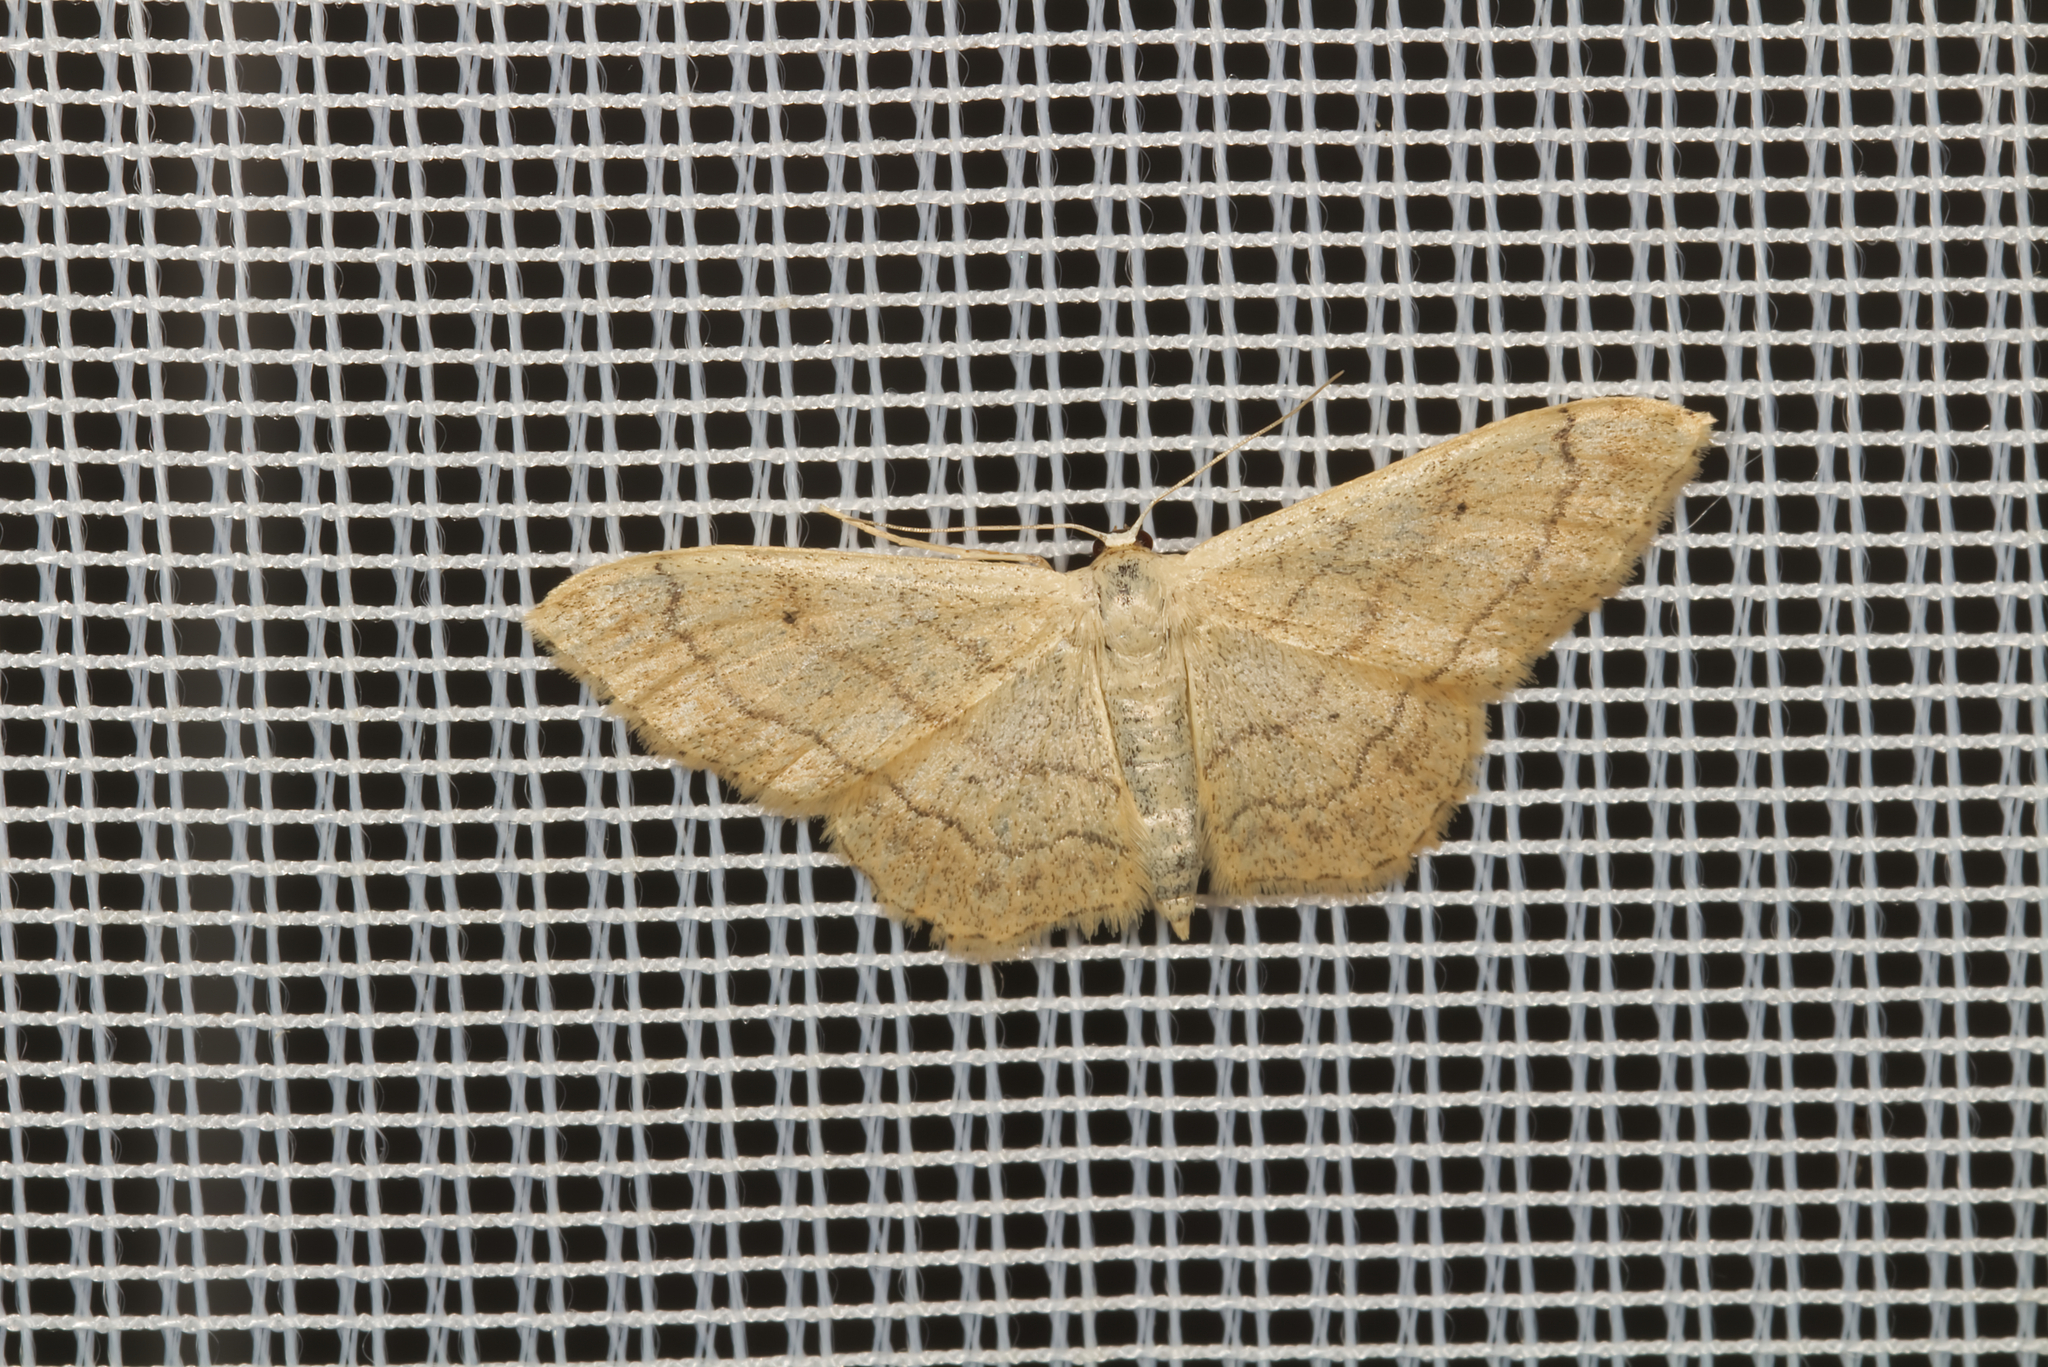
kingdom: Animalia
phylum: Arthropoda
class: Insecta
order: Lepidoptera
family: Geometridae
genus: Idaea
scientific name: Idaea aversata
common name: Riband wave
